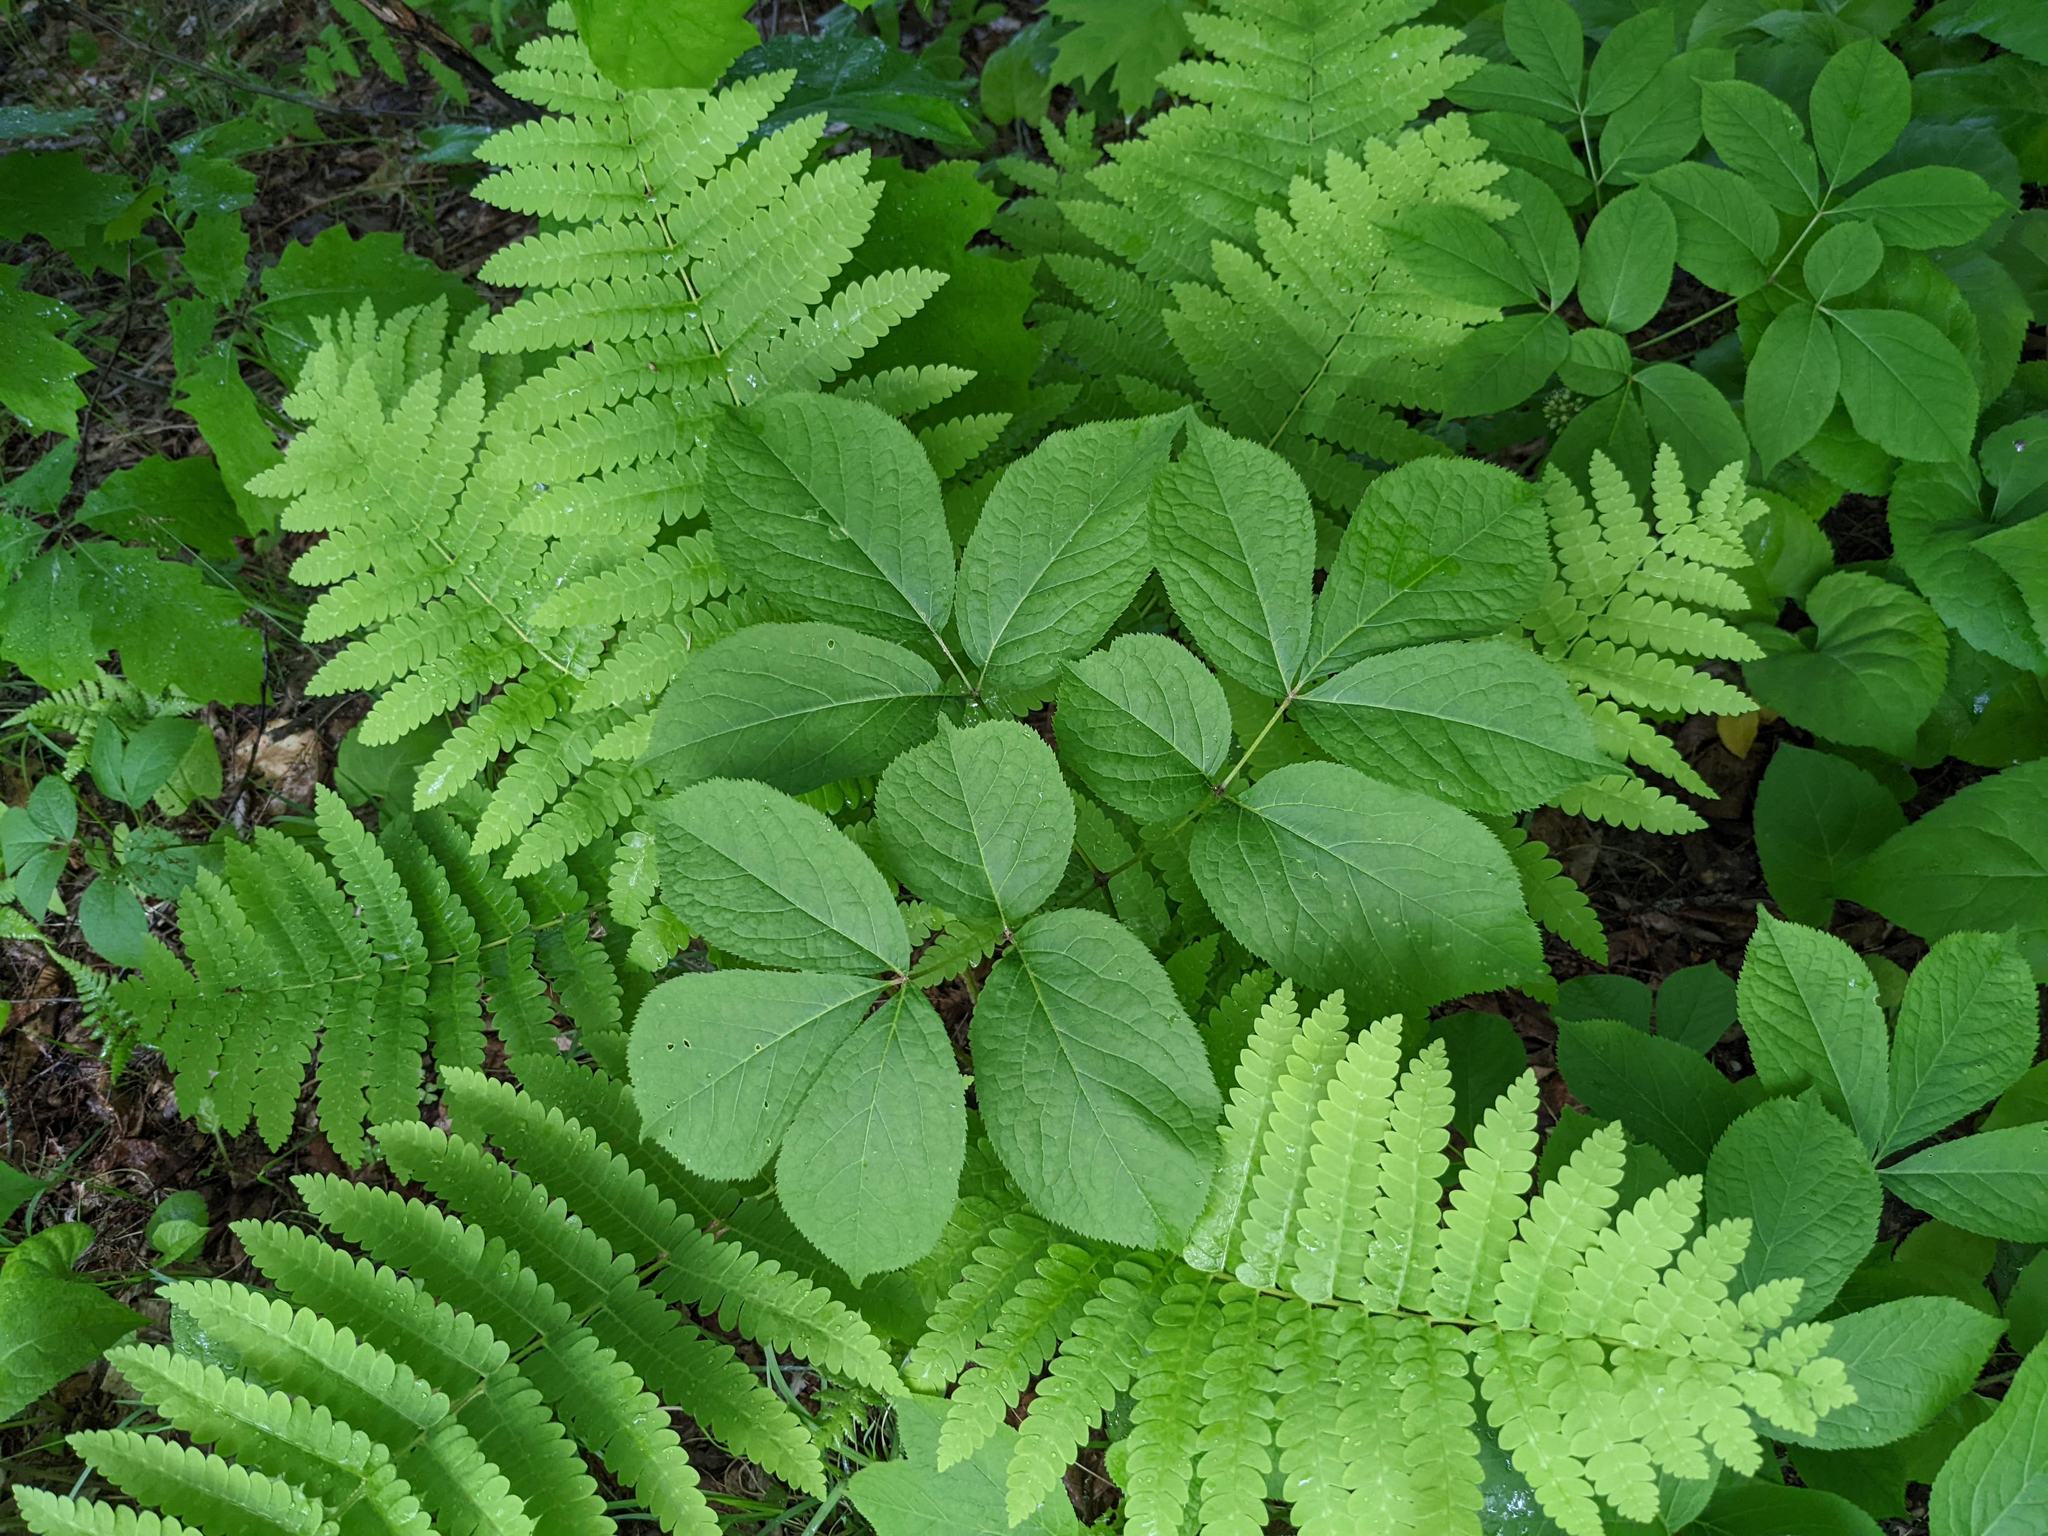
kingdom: Plantae
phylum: Tracheophyta
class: Magnoliopsida
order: Apiales
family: Araliaceae
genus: Aralia
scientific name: Aralia nudicaulis
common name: Wild sarsaparilla
